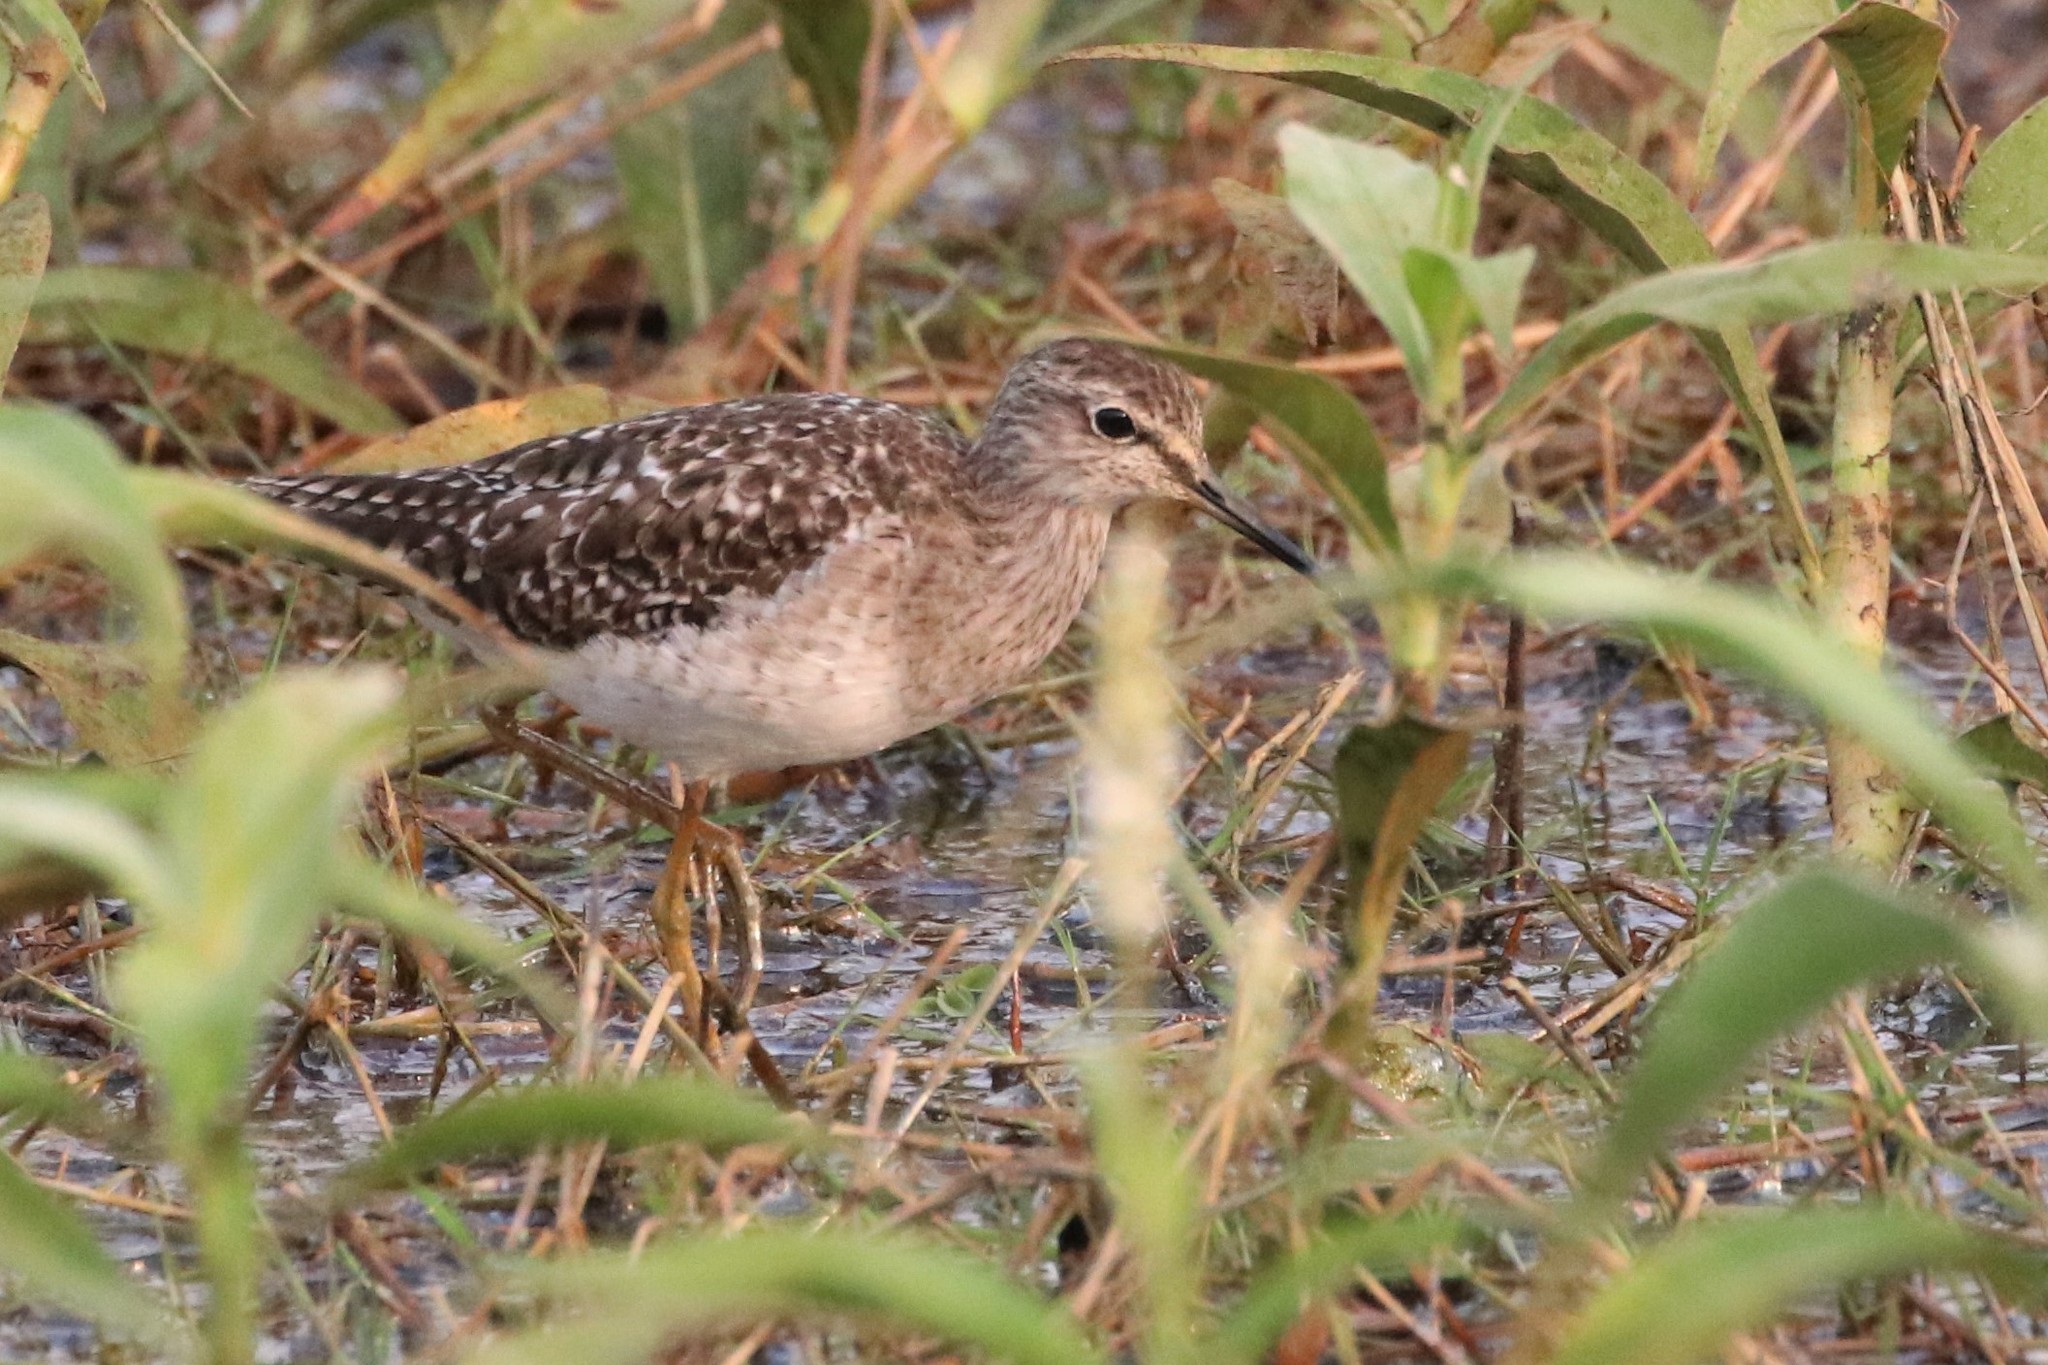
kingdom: Animalia
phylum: Chordata
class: Aves
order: Charadriiformes
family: Scolopacidae
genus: Tringa
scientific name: Tringa glareola
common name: Wood sandpiper
